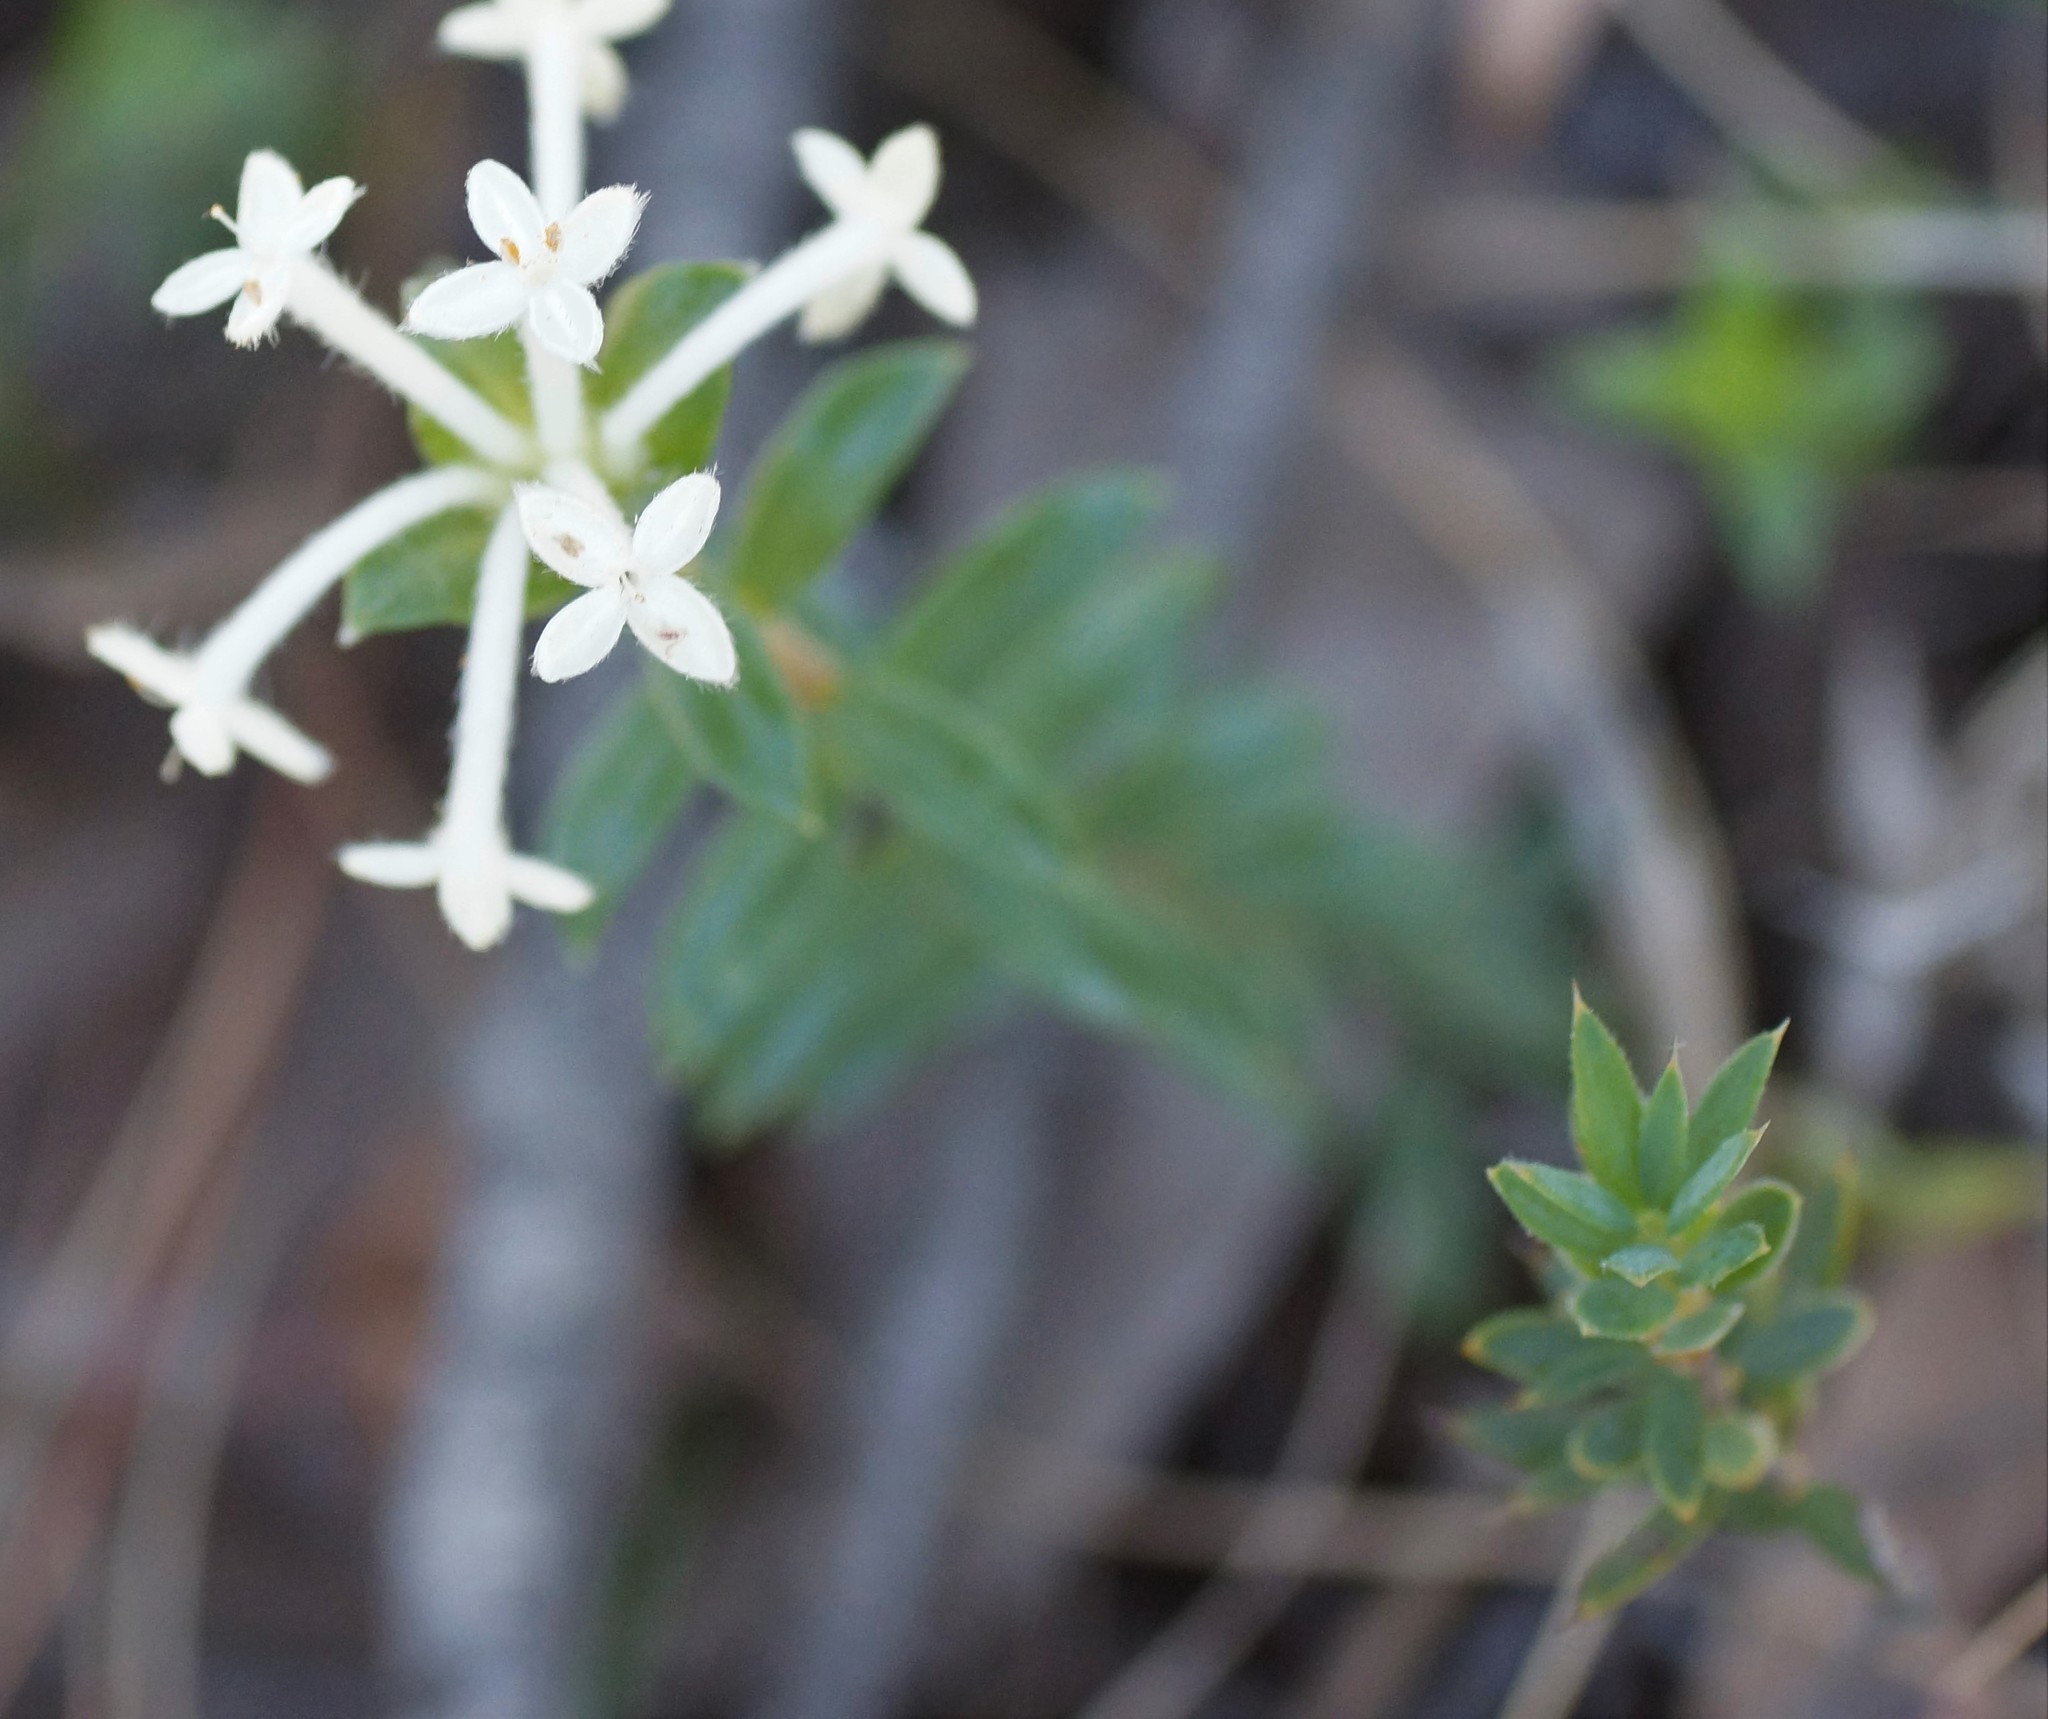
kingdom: Plantae
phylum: Tracheophyta
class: Magnoliopsida
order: Malvales
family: Thymelaeaceae
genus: Pimelea
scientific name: Pimelea humilis
